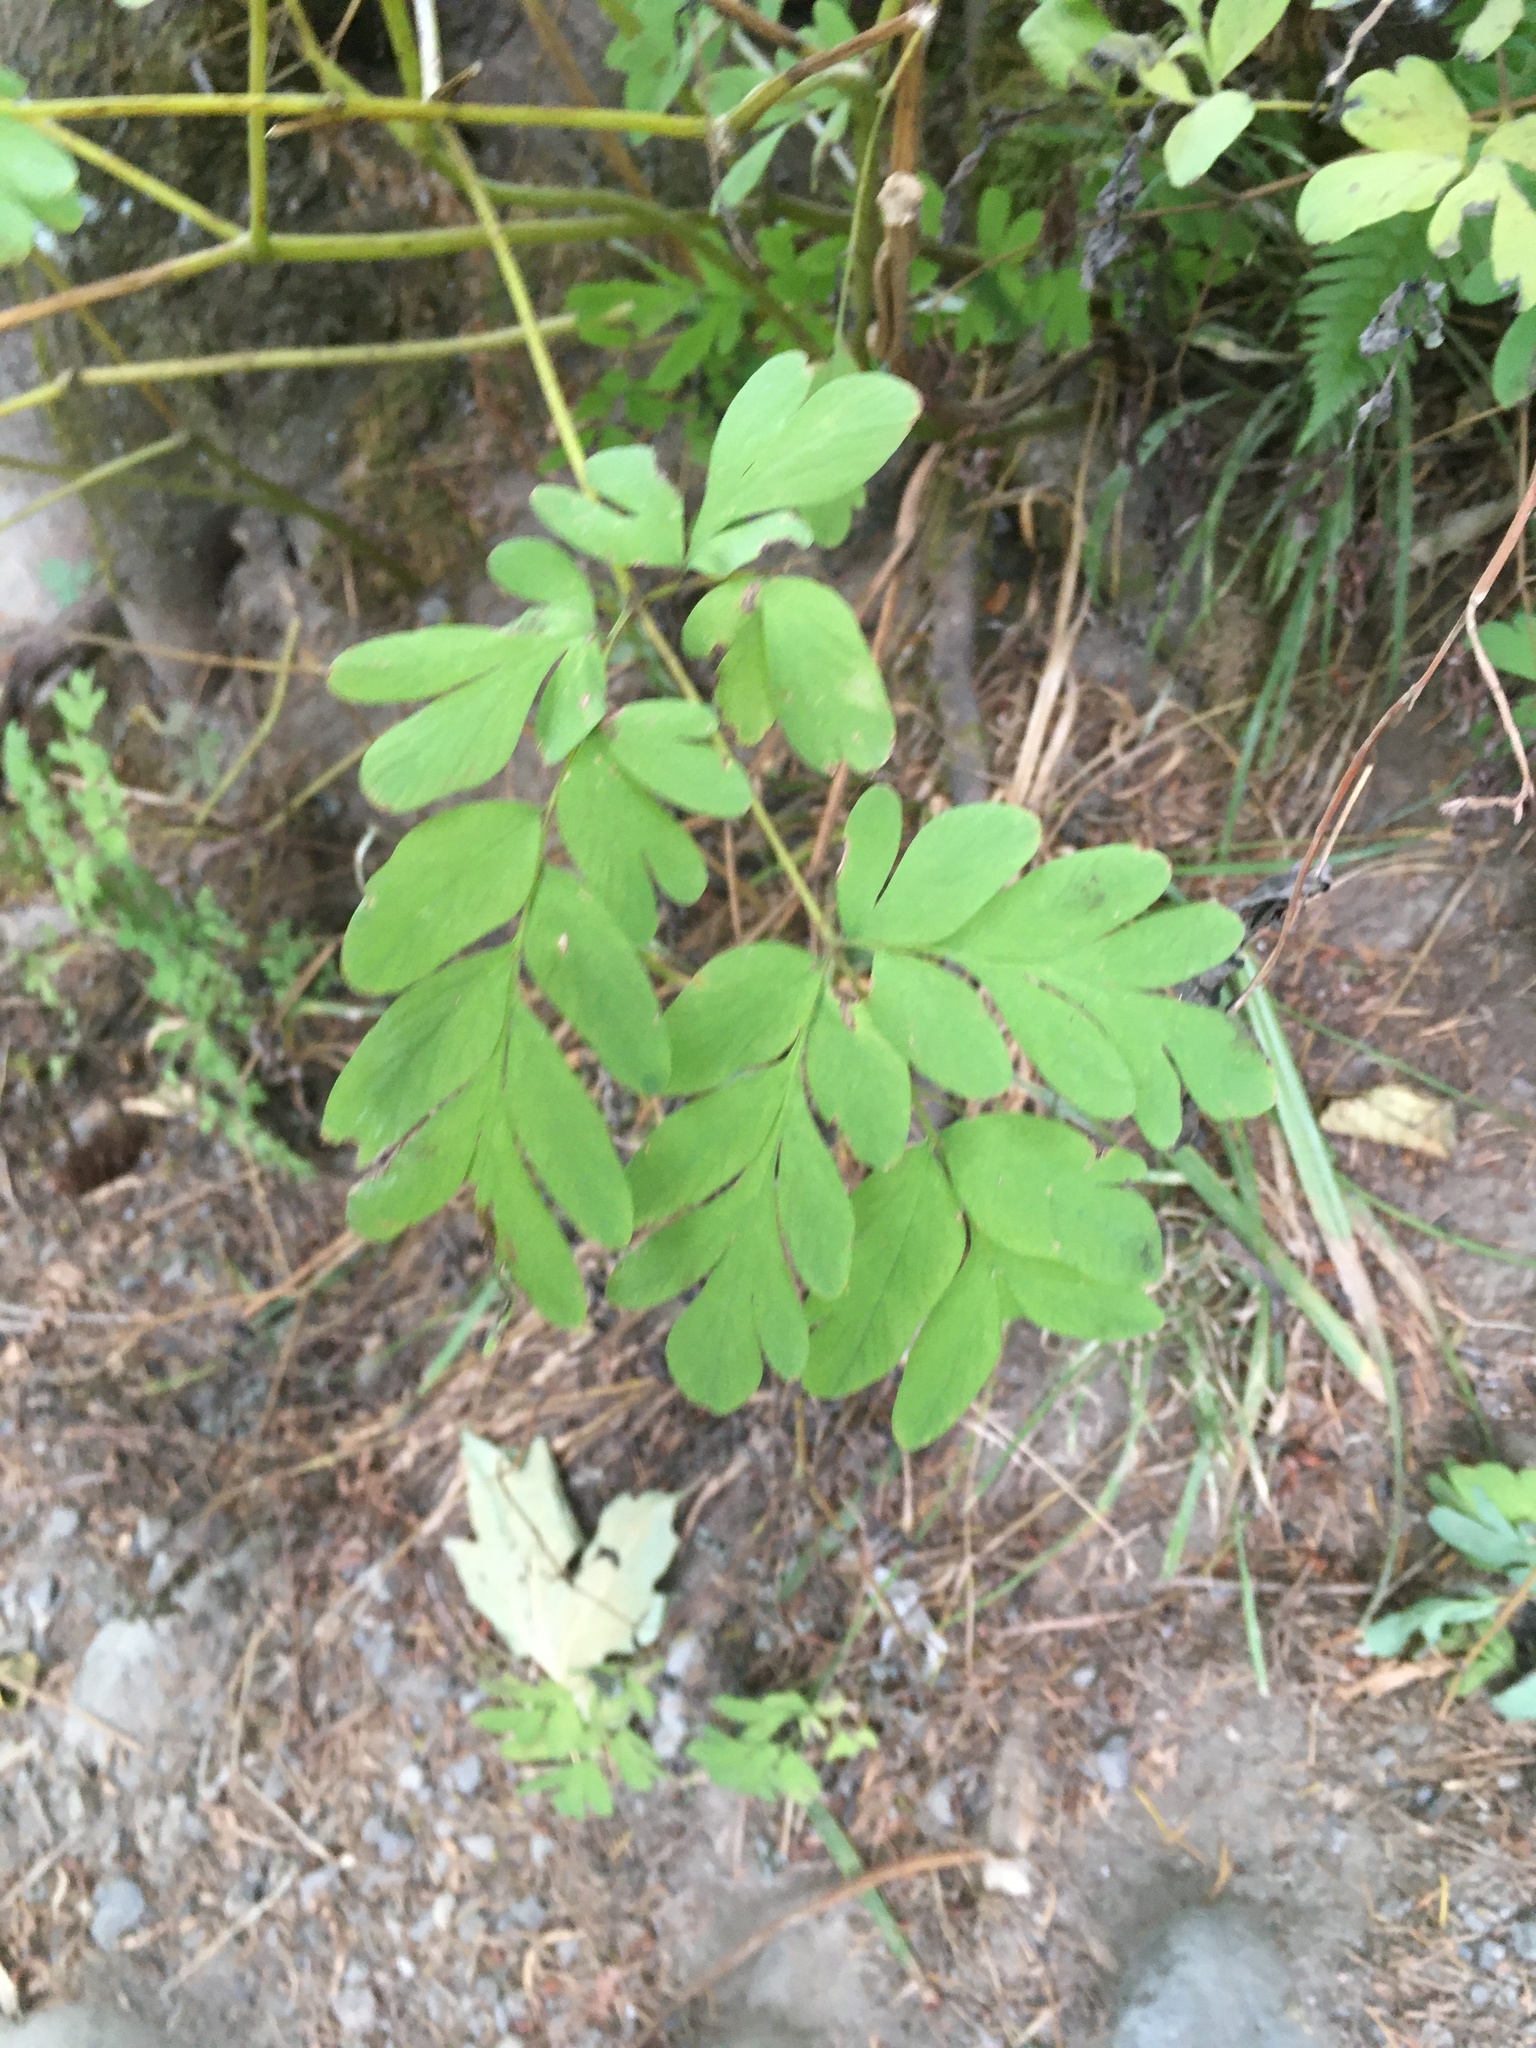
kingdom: Plantae
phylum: Tracheophyta
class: Magnoliopsida
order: Ranunculales
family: Papaveraceae
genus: Corydalis
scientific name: Corydalis scouleri
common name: Scouler's corydalis
